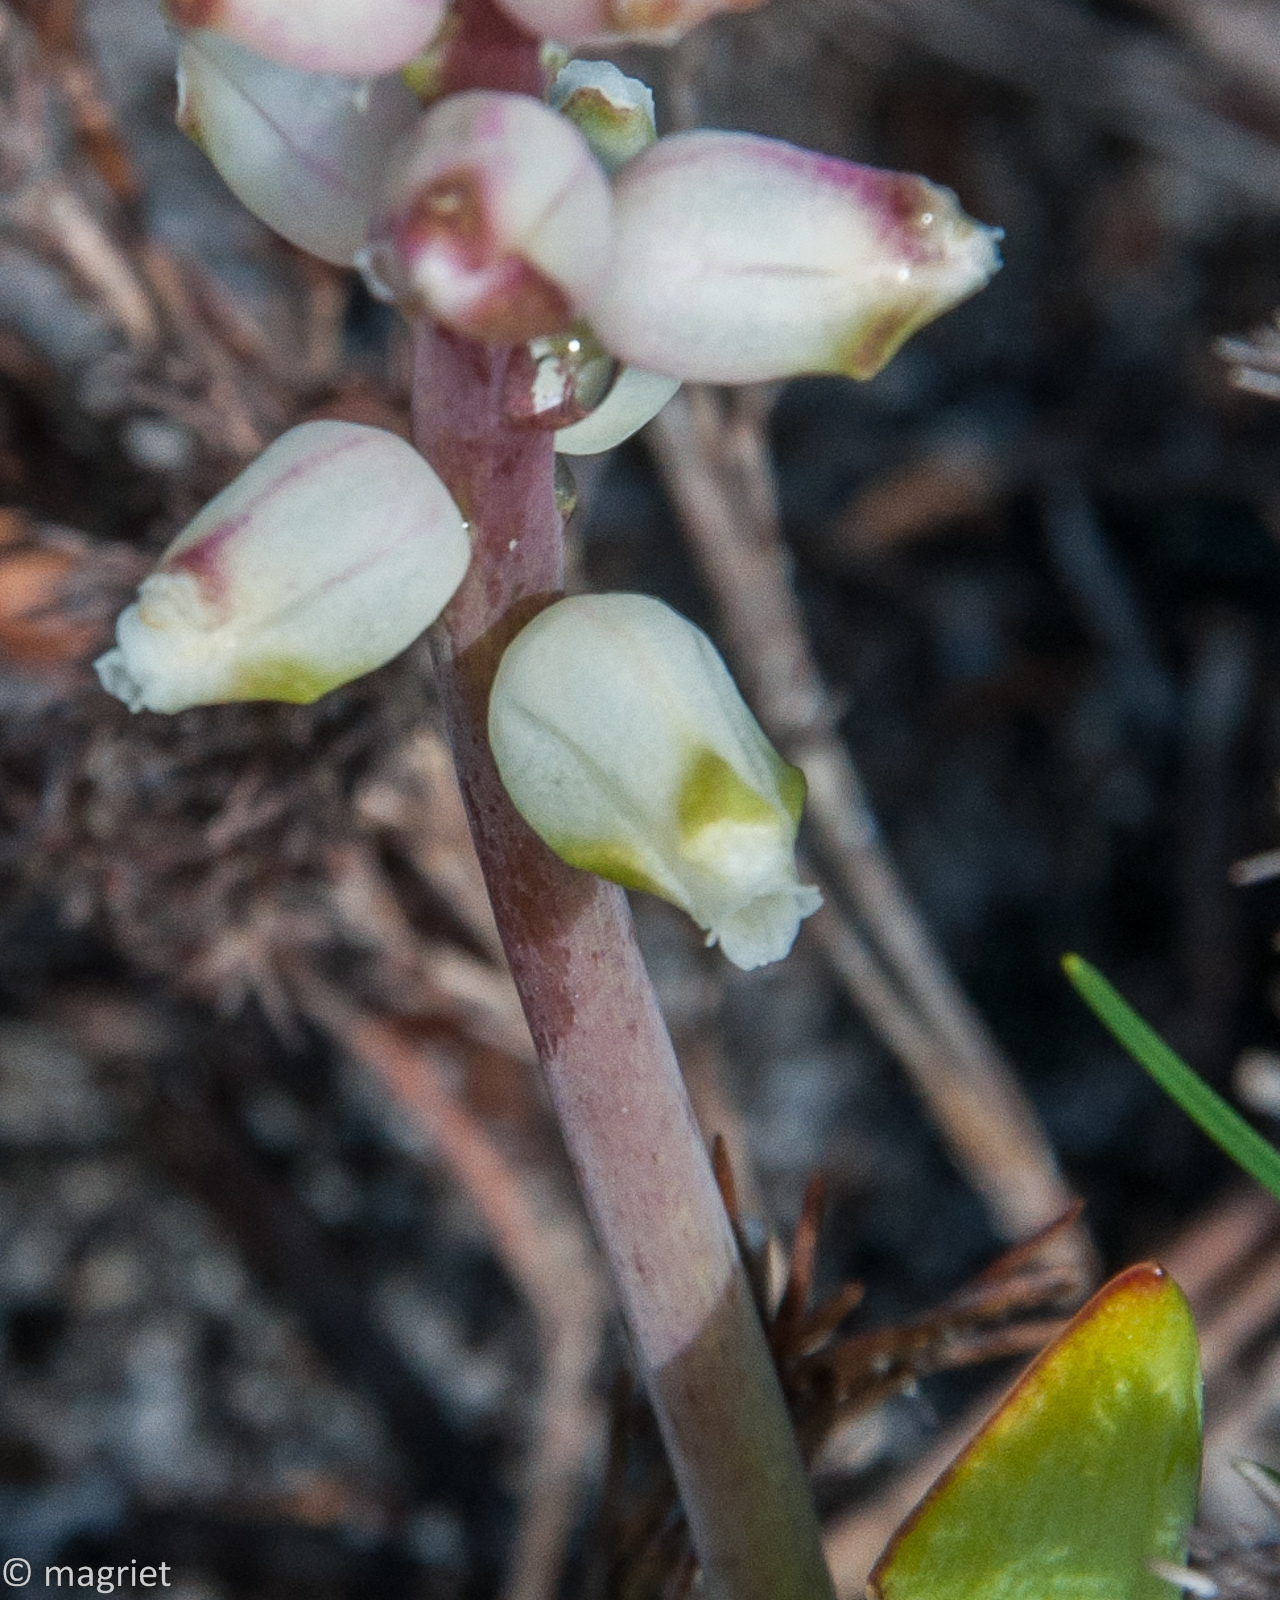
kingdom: Plantae
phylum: Tracheophyta
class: Liliopsida
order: Asparagales
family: Asparagaceae
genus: Lachenalia
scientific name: Lachenalia peersii
